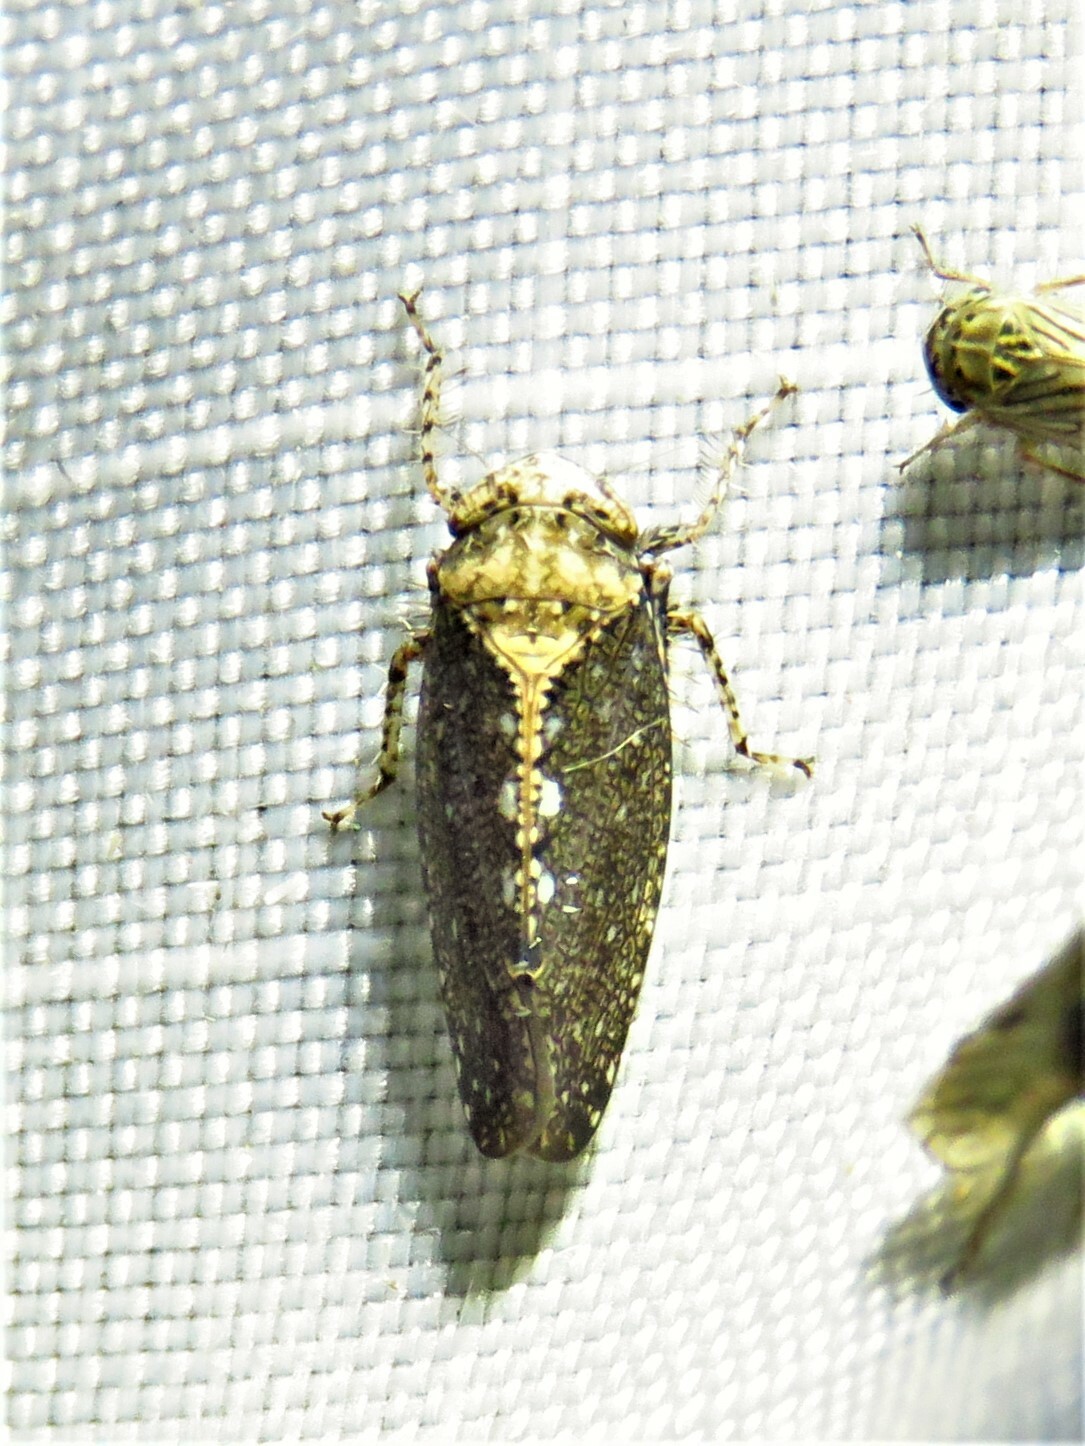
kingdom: Animalia
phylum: Arthropoda
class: Insecta
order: Hemiptera
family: Cicadellidae
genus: Excultanus
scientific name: Excultanus excultus
